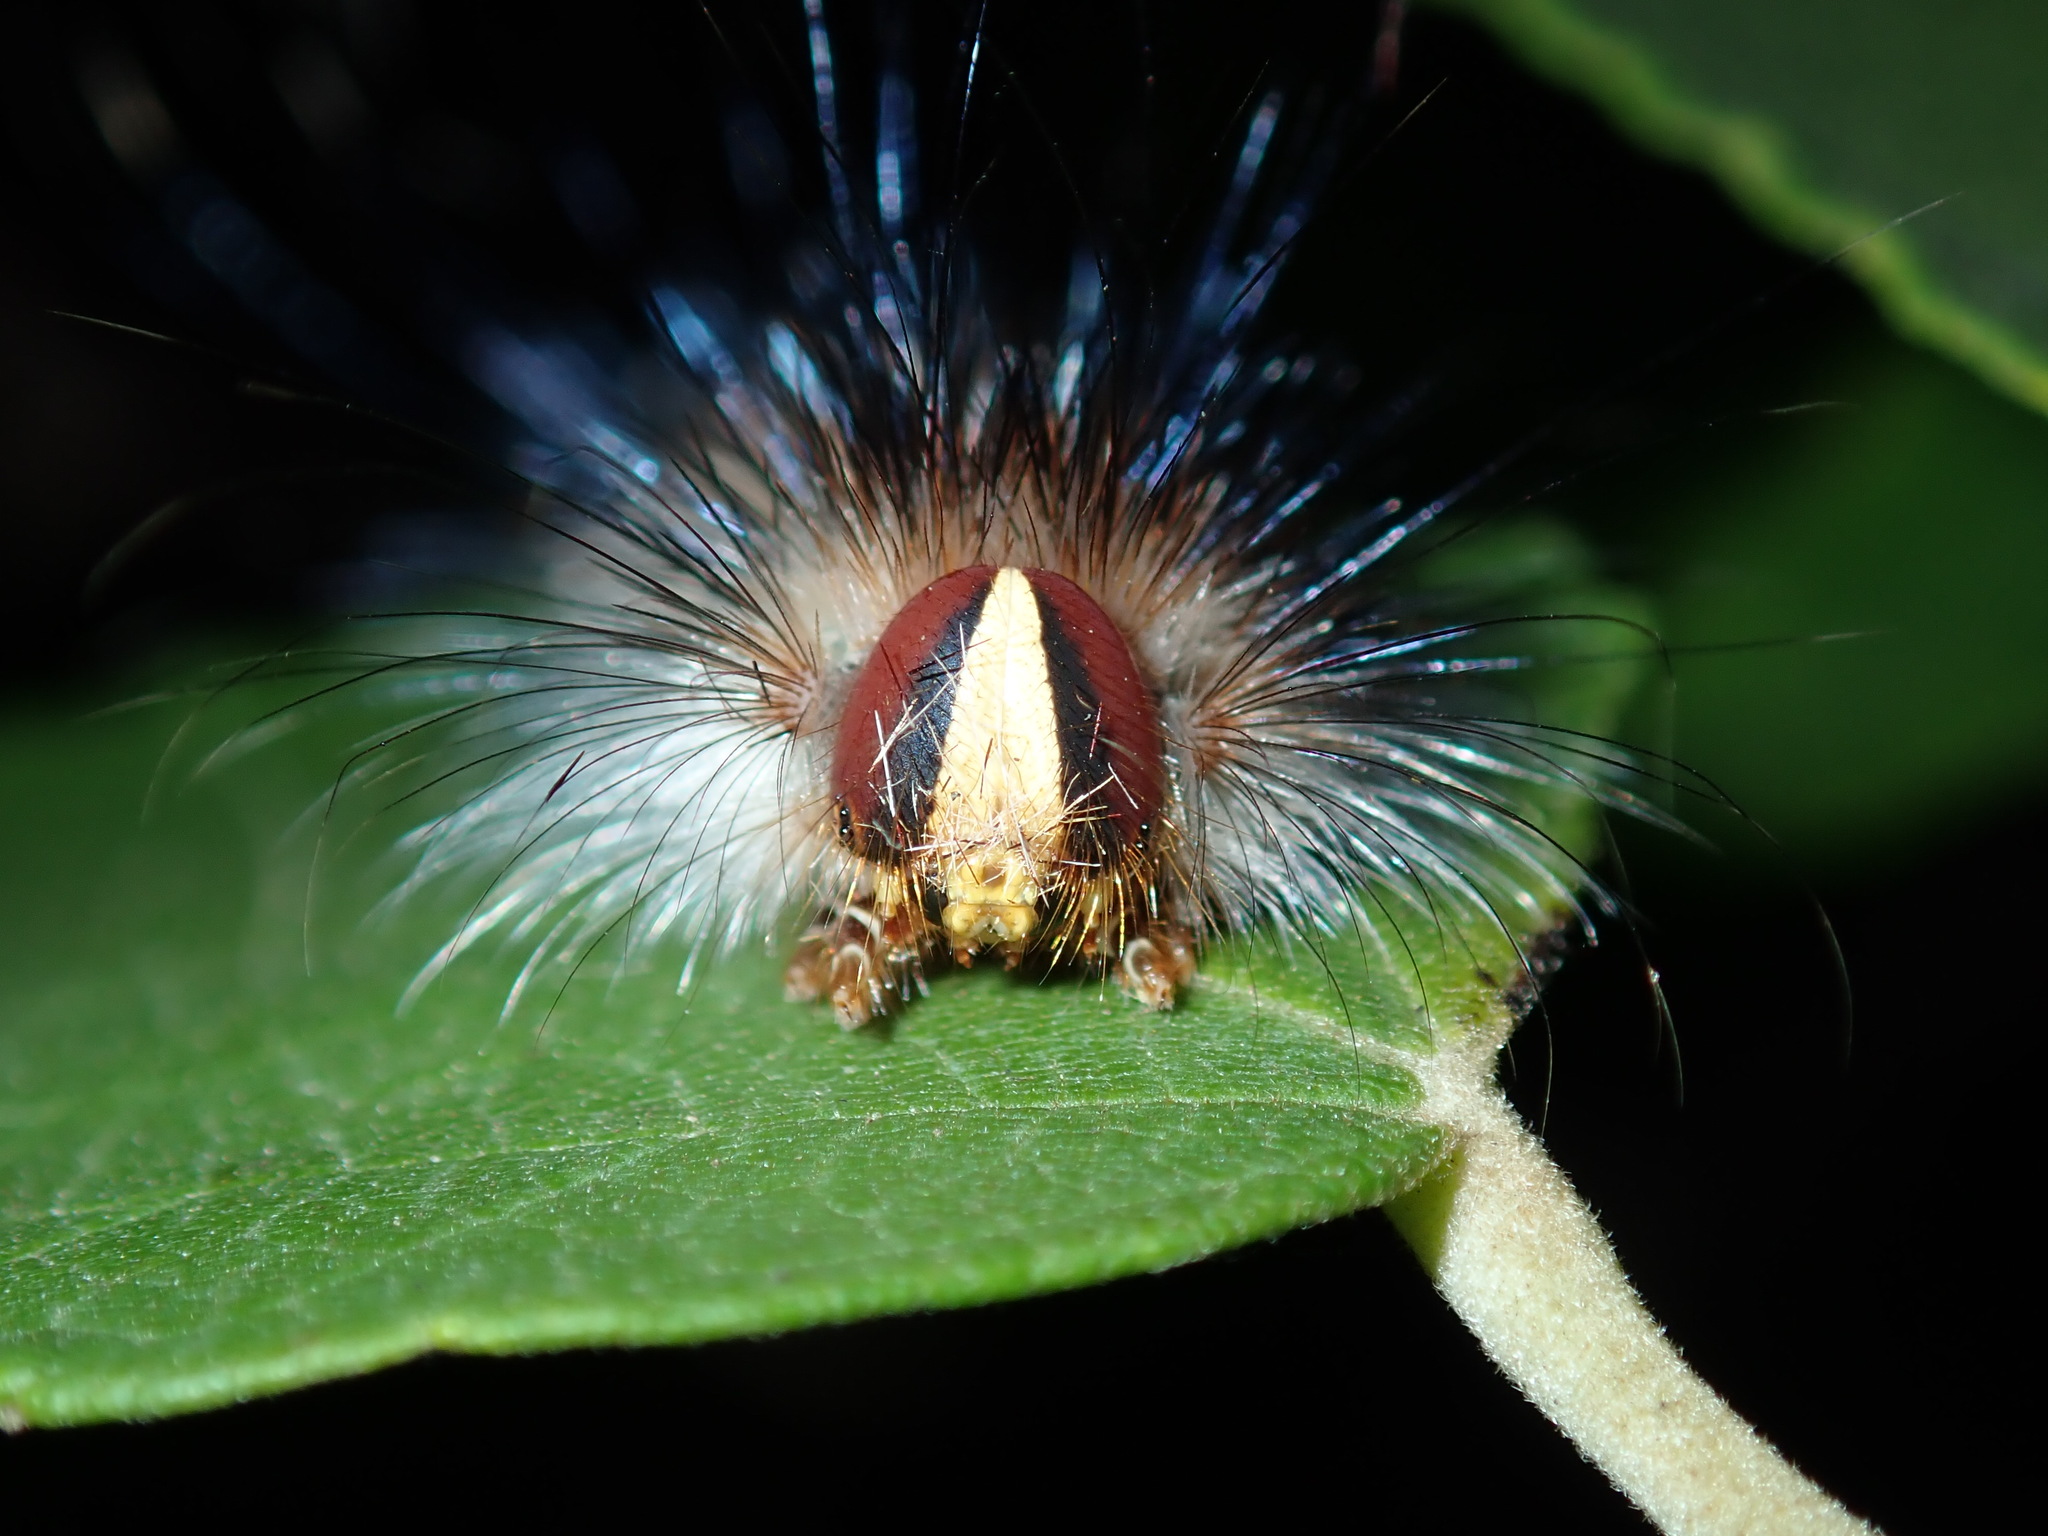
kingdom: Animalia
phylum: Arthropoda
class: Insecta
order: Lepidoptera
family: Anthelidae
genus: Anthela
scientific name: Anthela acuta
